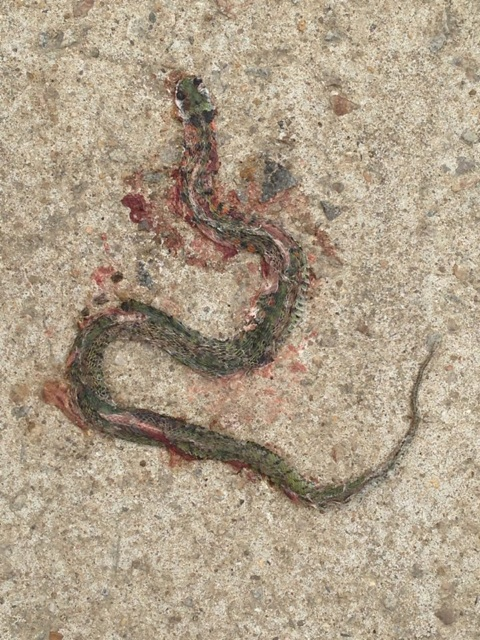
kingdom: Animalia
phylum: Chordata
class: Squamata
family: Colubridae
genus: Rhabdophis
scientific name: Rhabdophis tigrinus
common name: Tiger keelback
